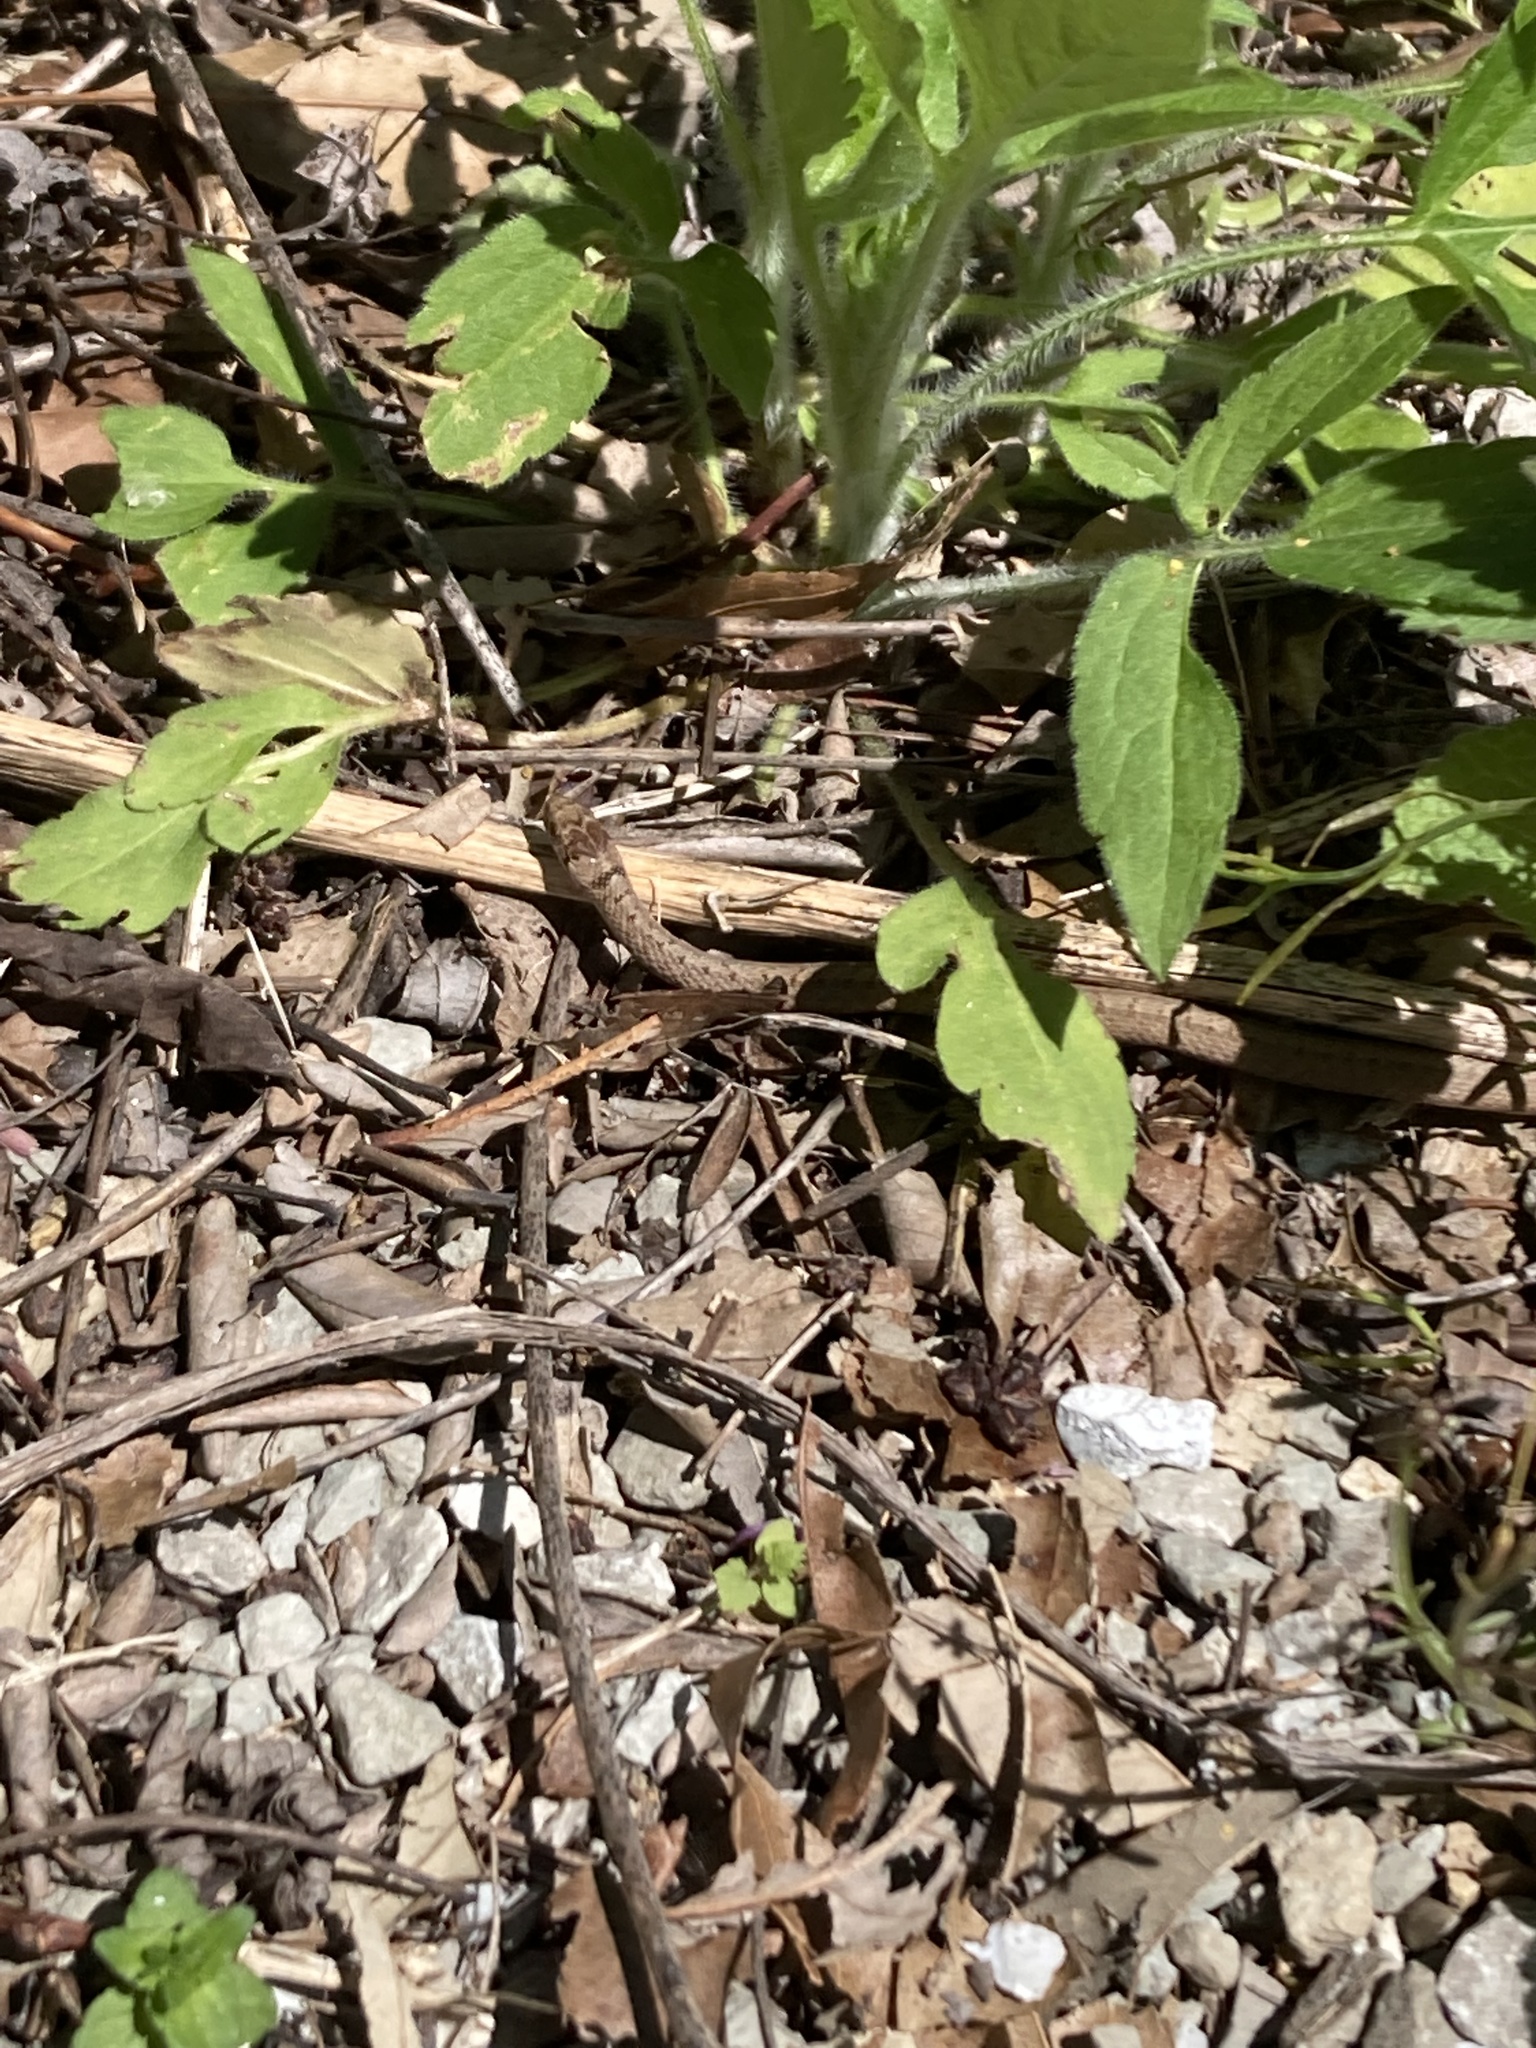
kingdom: Animalia
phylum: Chordata
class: Squamata
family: Colubridae
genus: Storeria
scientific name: Storeria dekayi
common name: (dekay’s) brown snake
